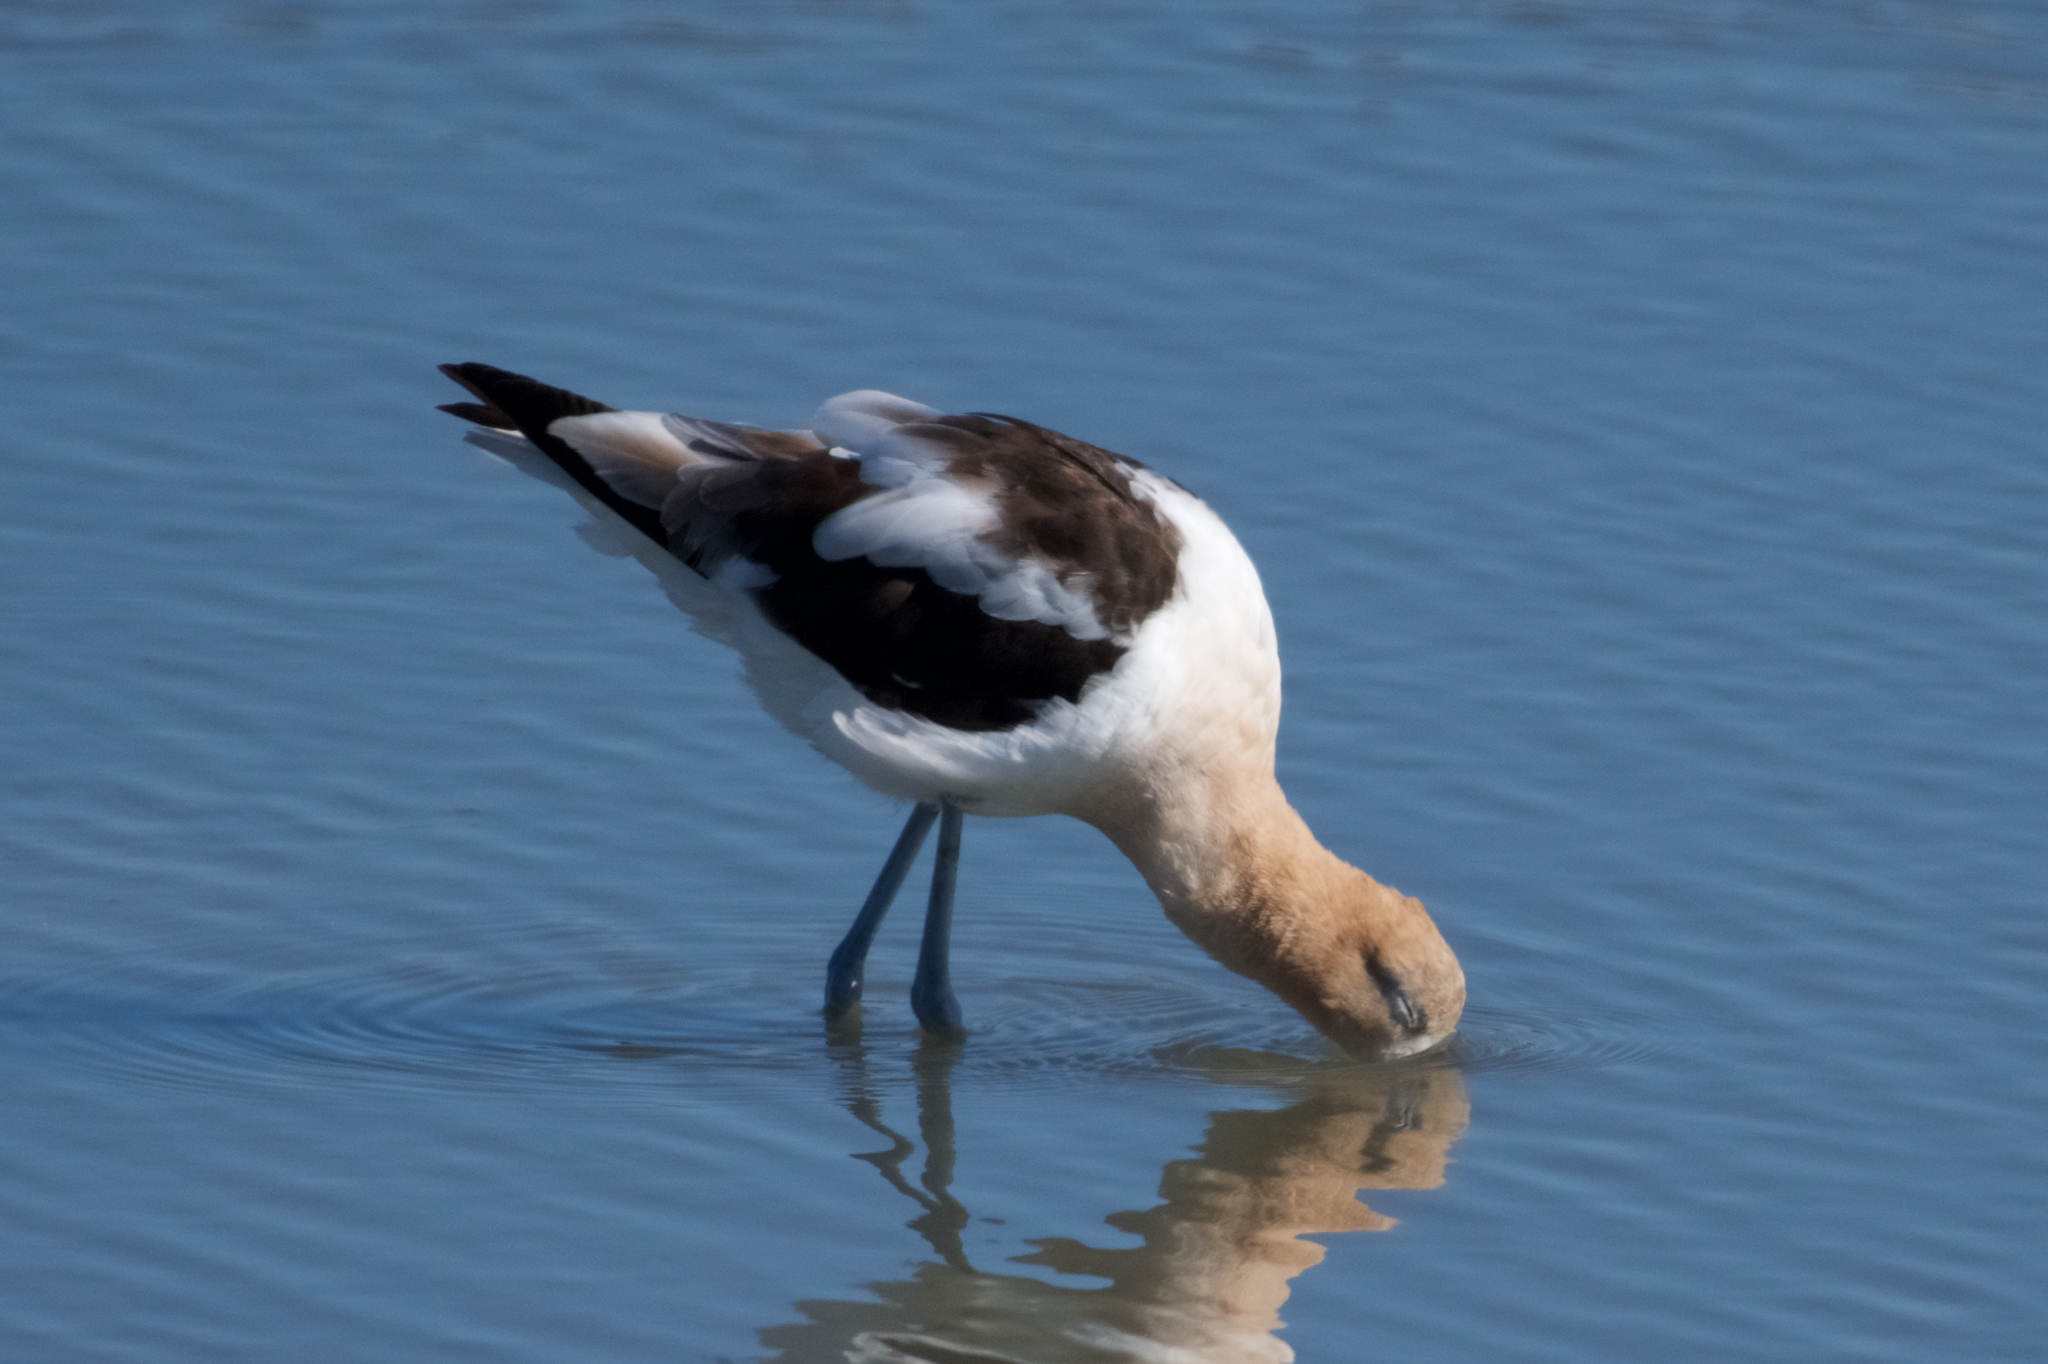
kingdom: Animalia
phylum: Chordata
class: Aves
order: Charadriiformes
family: Recurvirostridae
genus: Recurvirostra
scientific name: Recurvirostra americana
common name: American avocet
